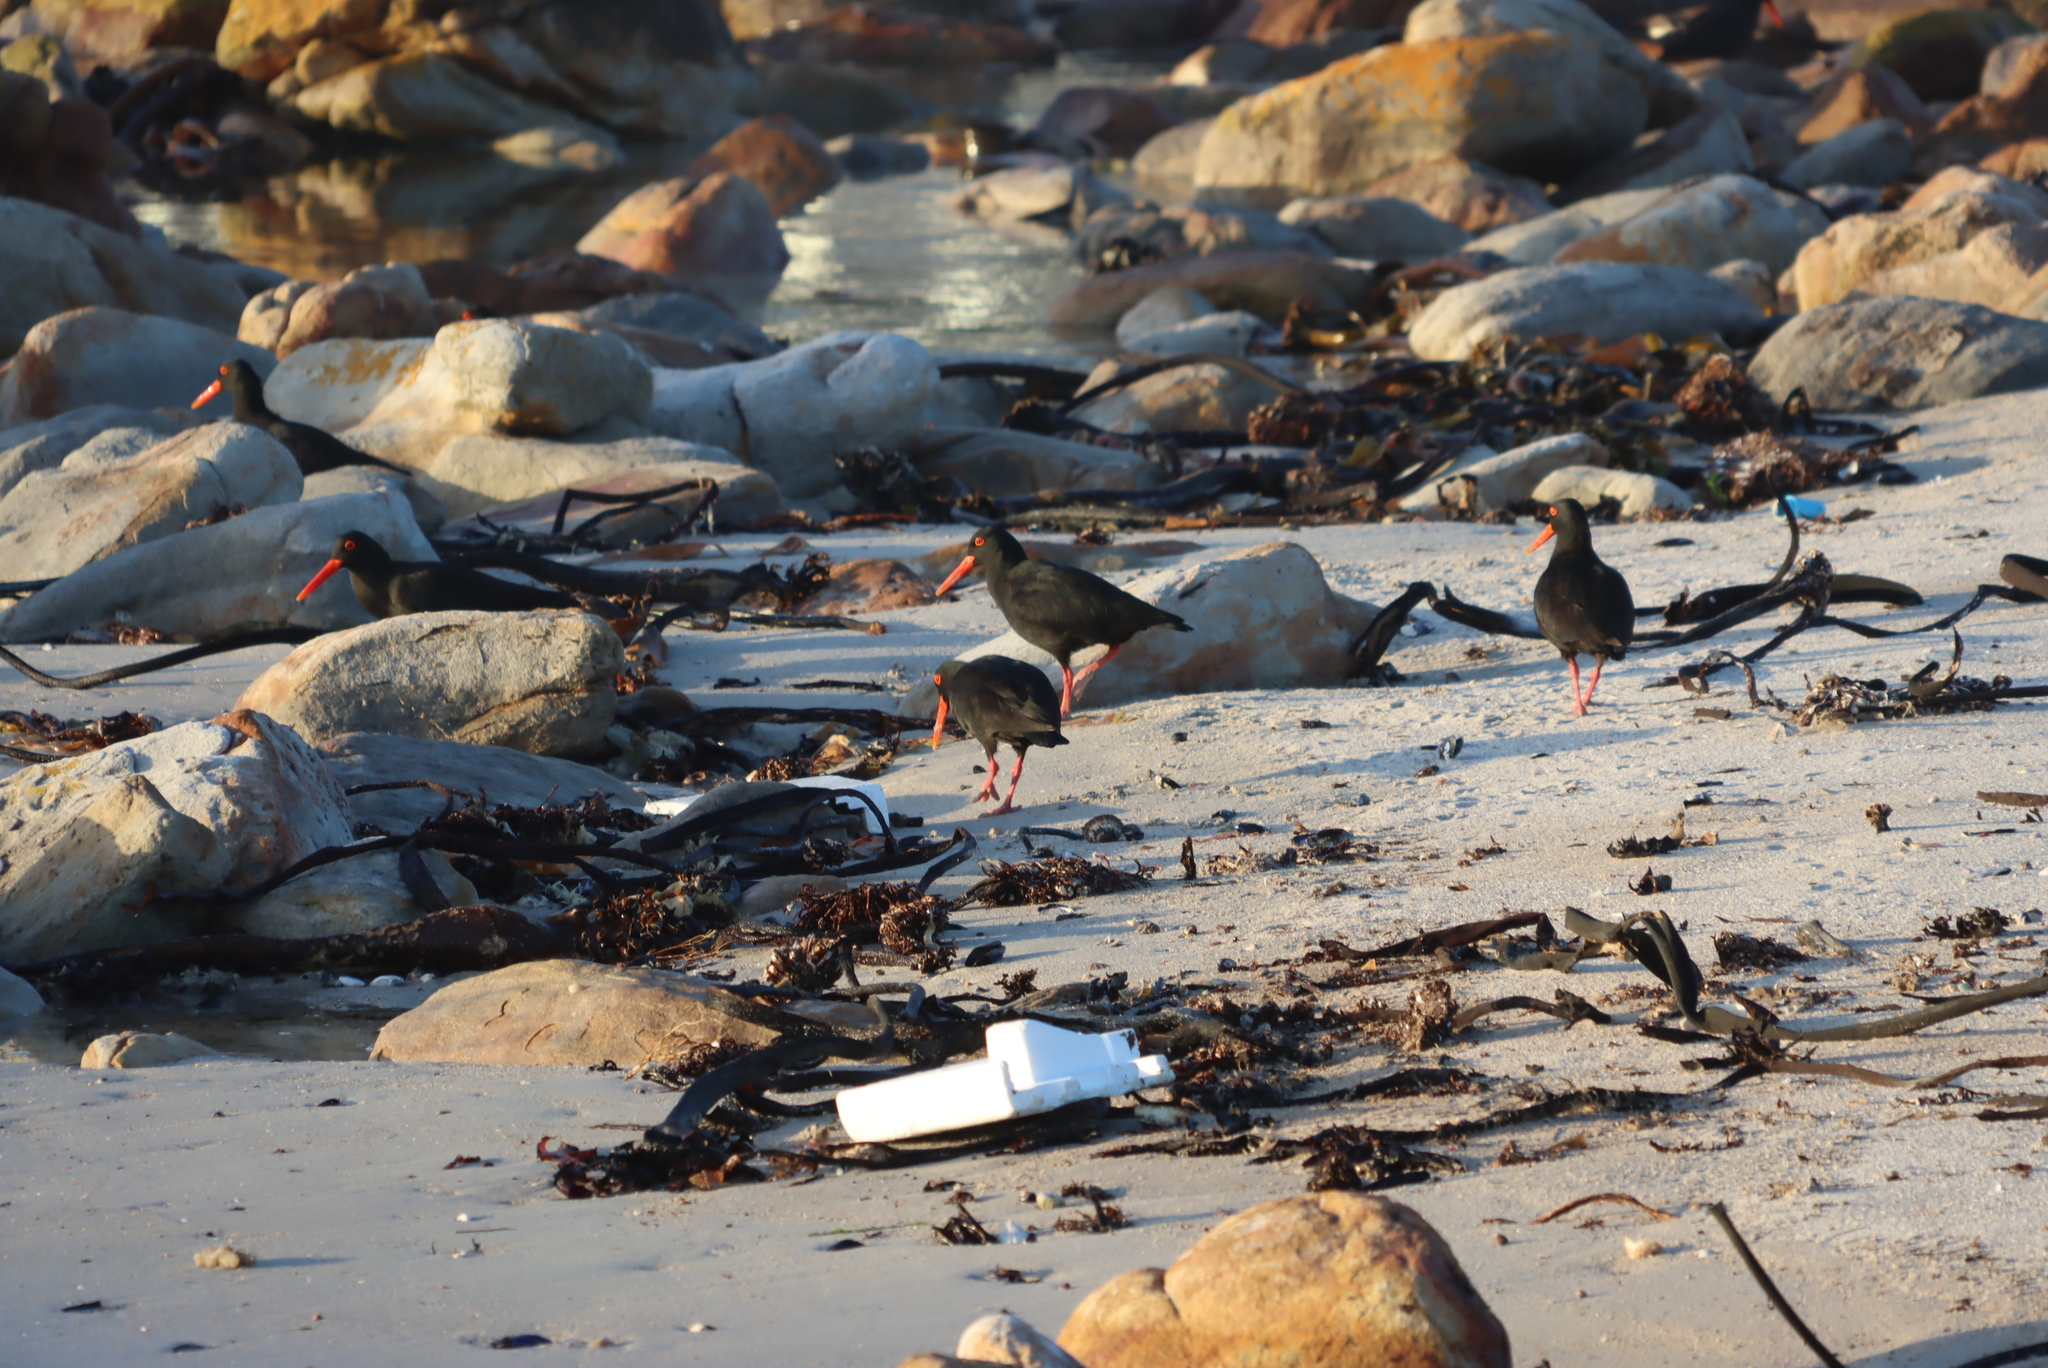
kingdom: Animalia
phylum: Chordata
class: Aves
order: Charadriiformes
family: Haematopodidae
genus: Haematopus
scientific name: Haematopus moquini
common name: African oystercatcher
